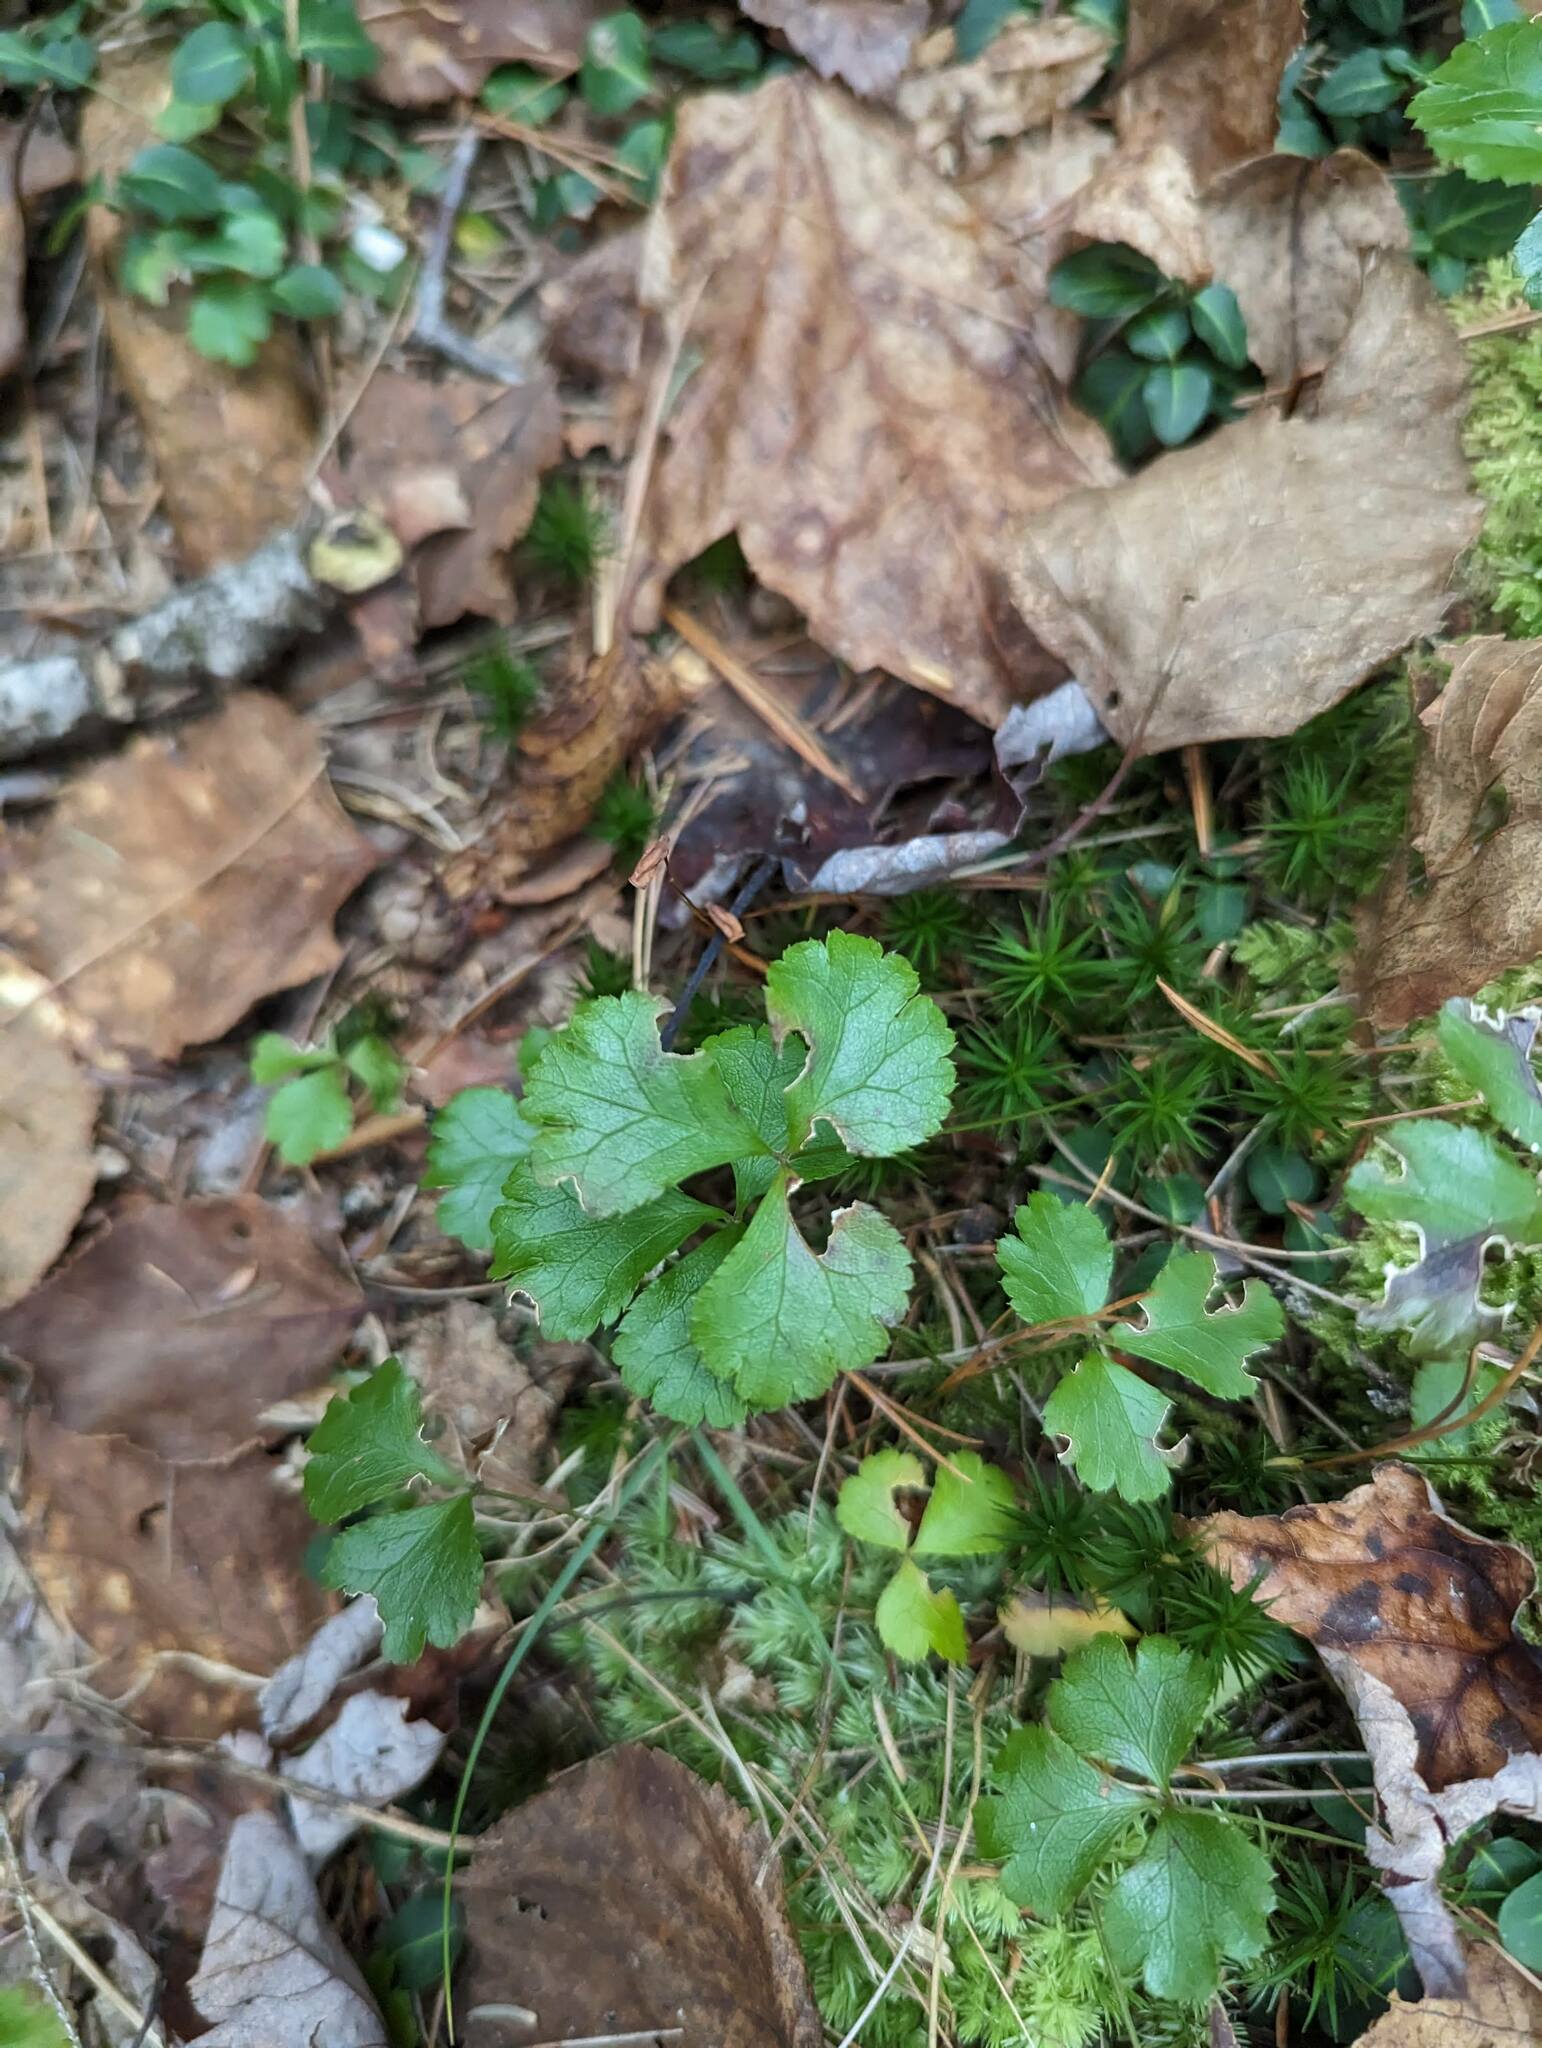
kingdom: Plantae
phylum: Tracheophyta
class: Magnoliopsida
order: Ranunculales
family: Ranunculaceae
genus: Coptis
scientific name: Coptis trifolia
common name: Canker-root
